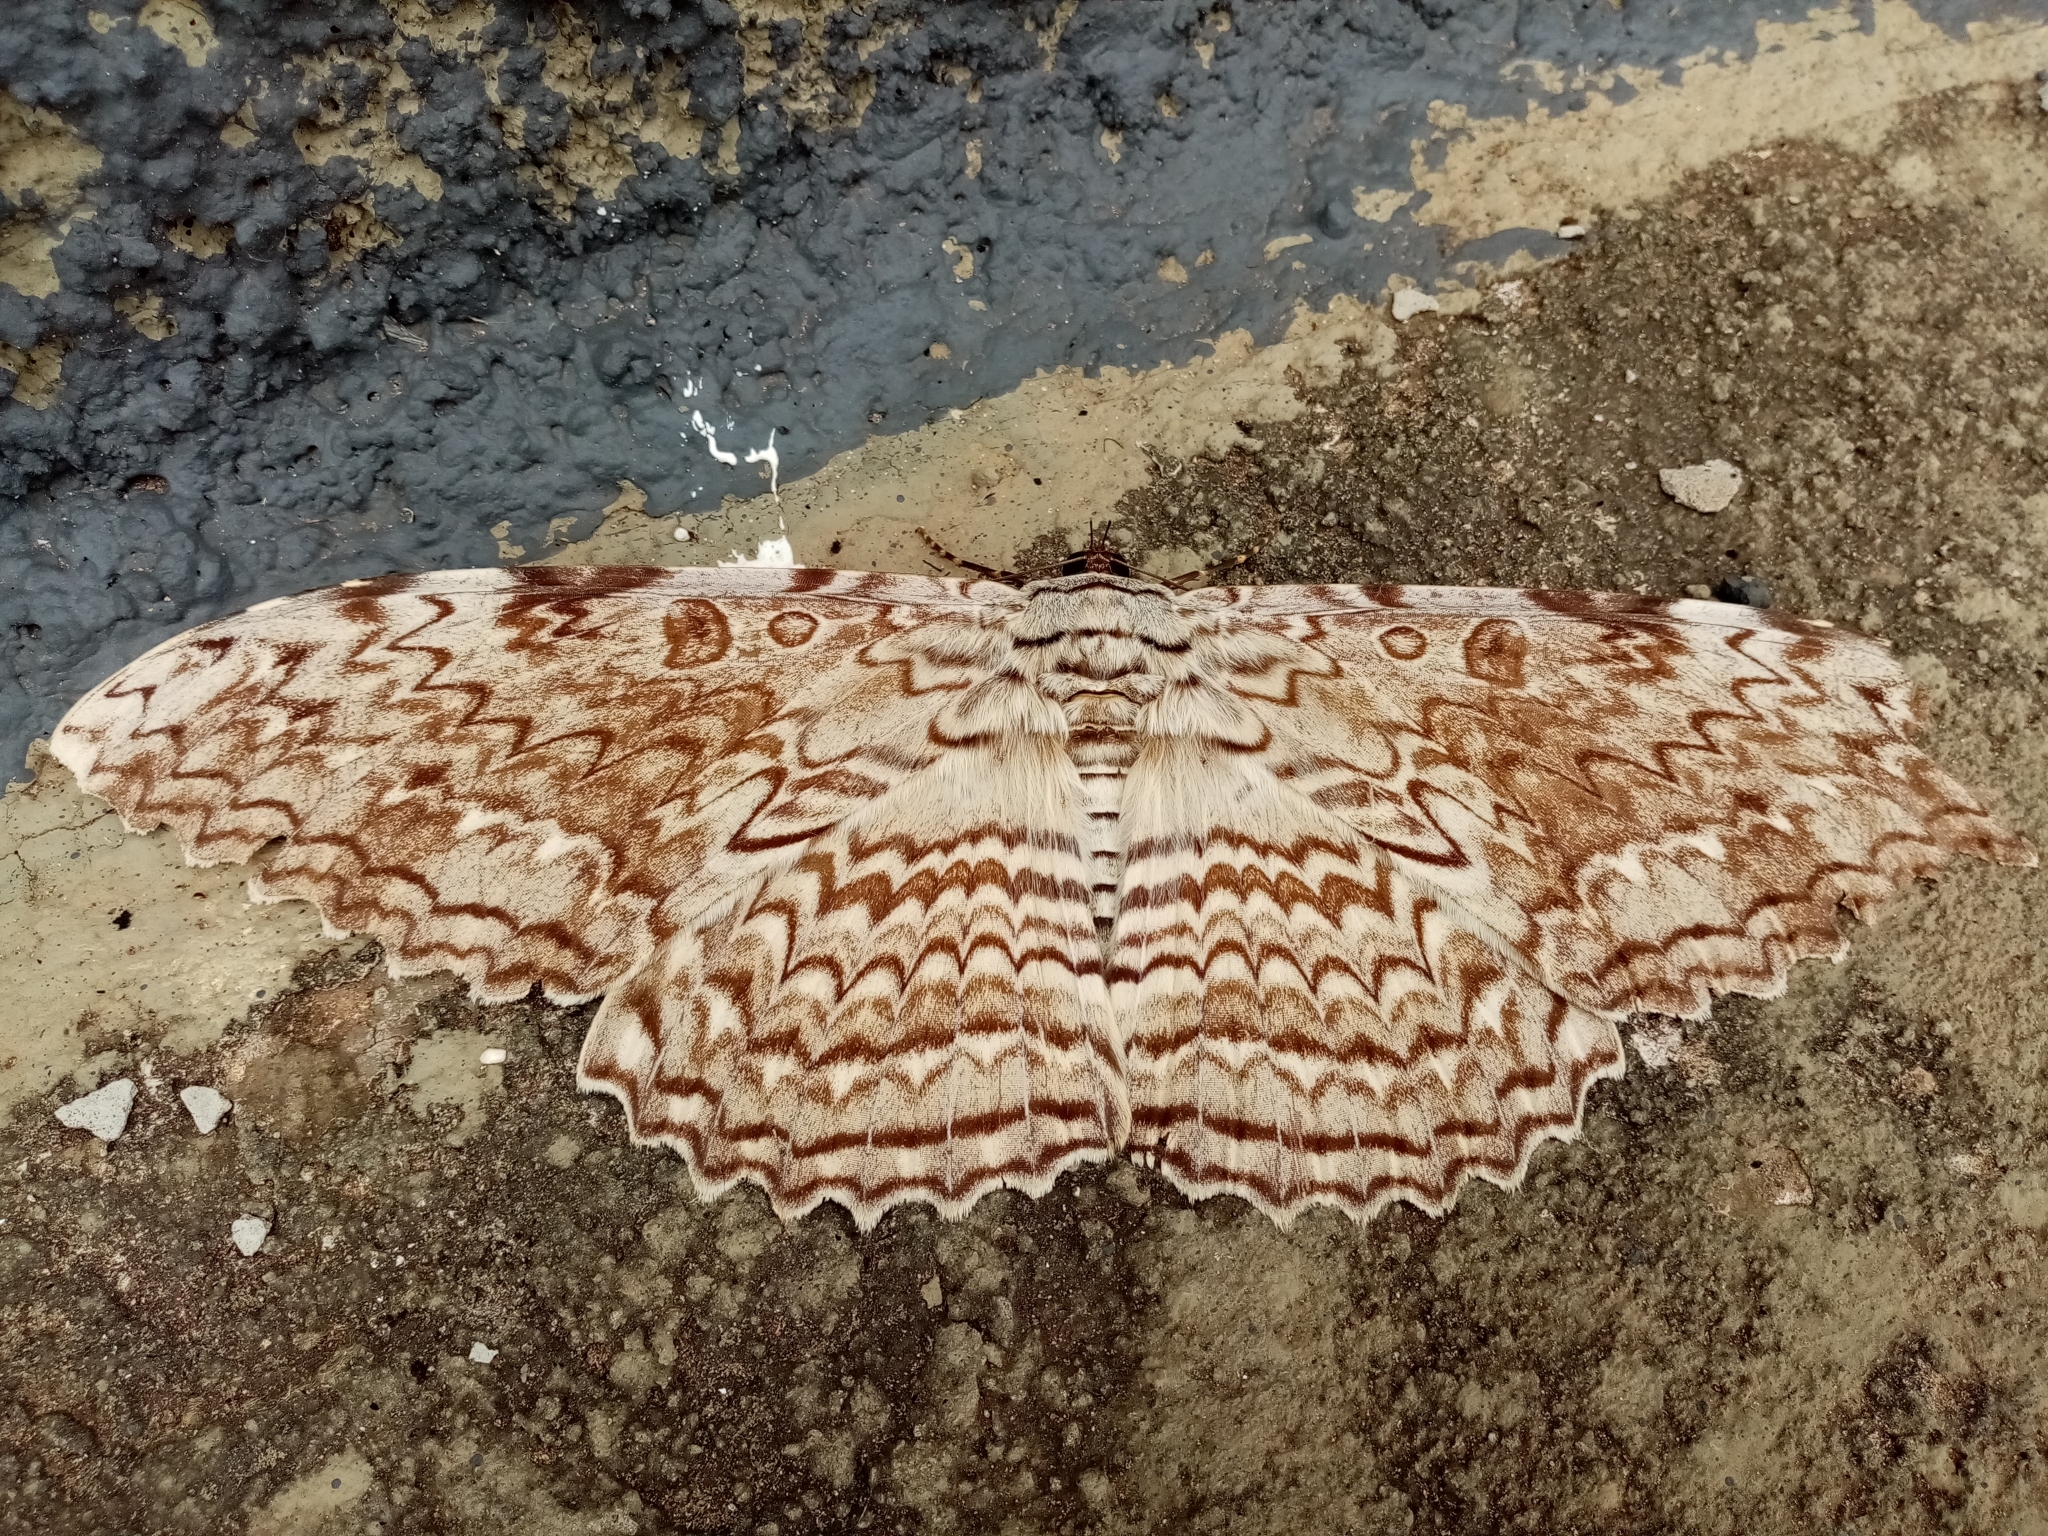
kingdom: Animalia
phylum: Arthropoda
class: Insecta
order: Lepidoptera
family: Erebidae
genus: Thysania
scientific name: Thysania agrippina
